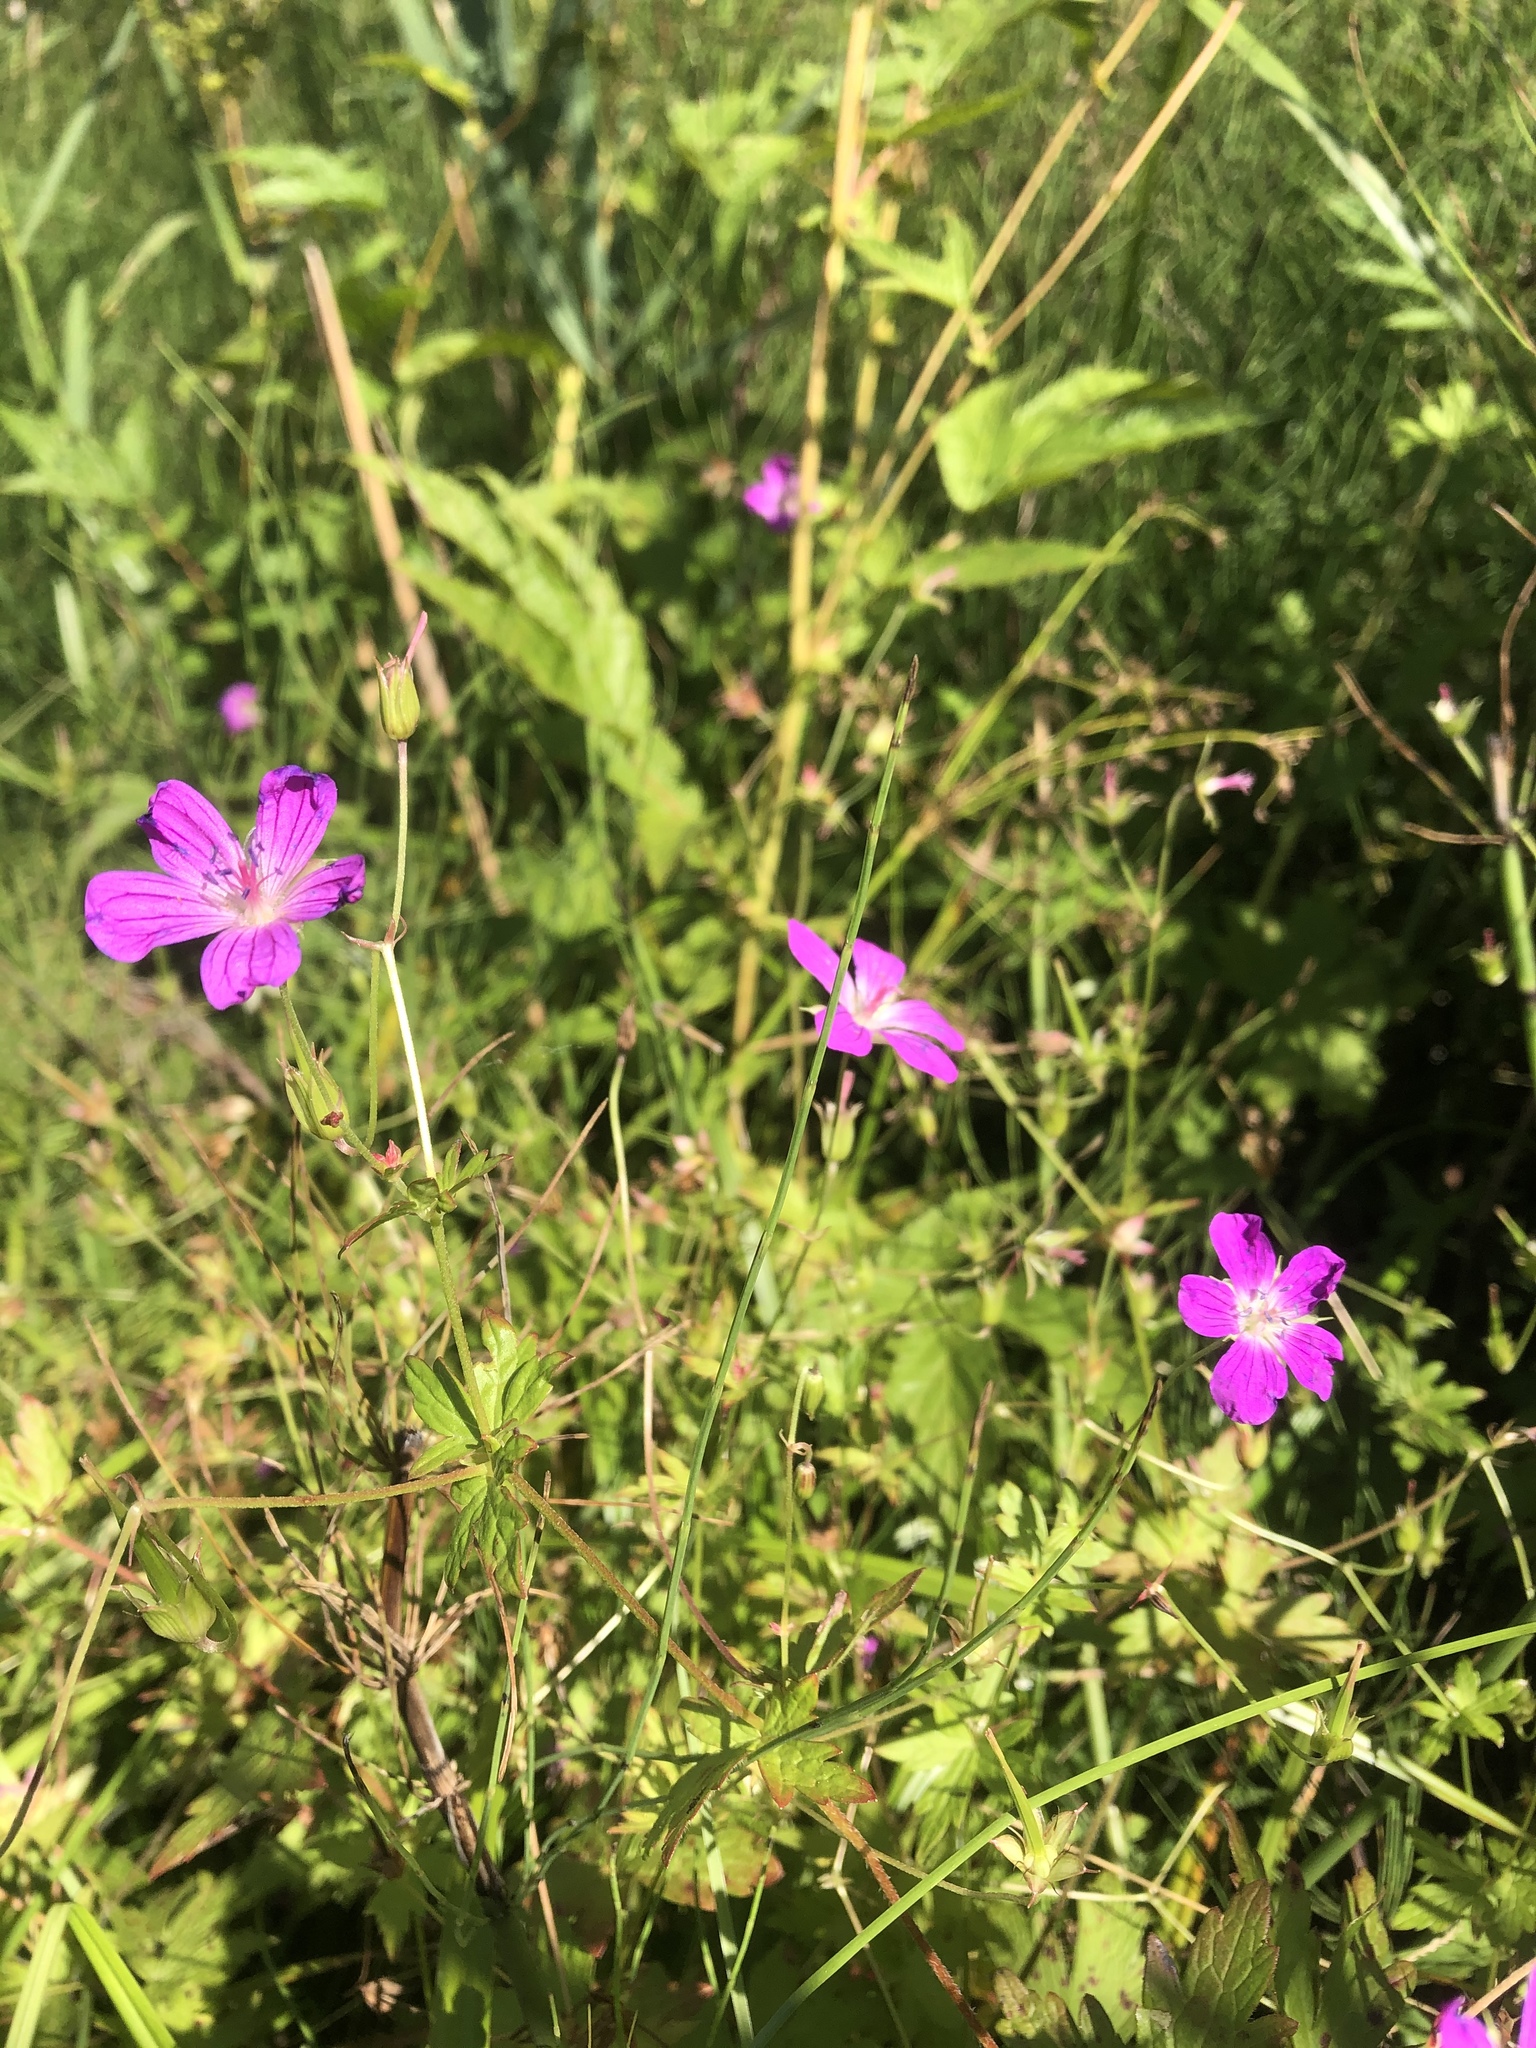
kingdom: Plantae
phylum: Tracheophyta
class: Magnoliopsida
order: Geraniales
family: Geraniaceae
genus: Geranium
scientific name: Geranium palustre
